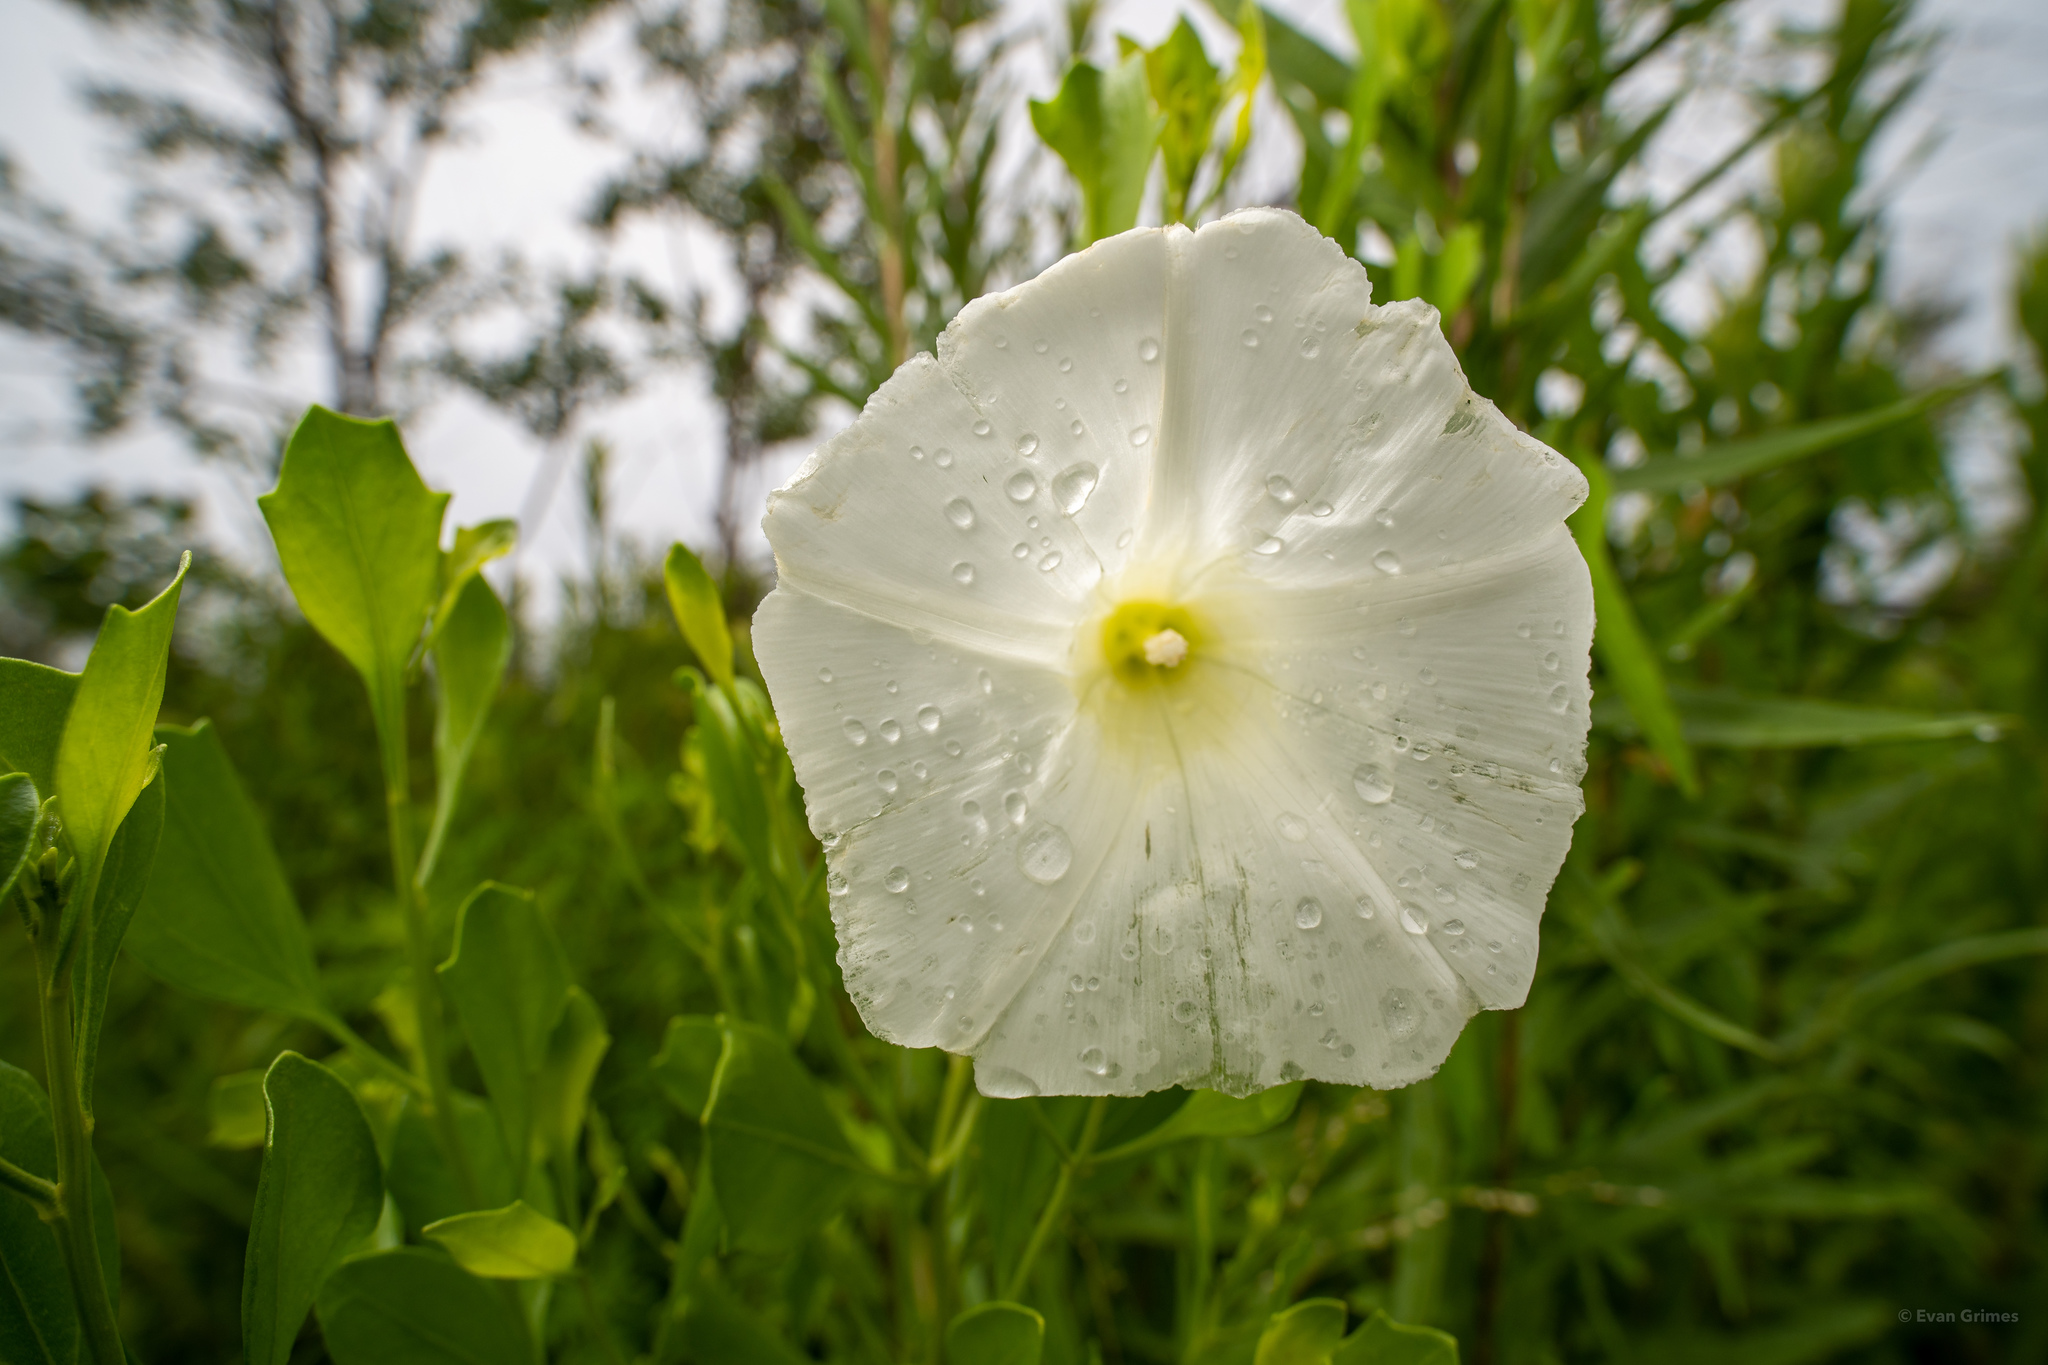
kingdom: Plantae
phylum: Tracheophyta
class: Magnoliopsida
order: Solanales
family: Convolvulaceae
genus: Ipomoea
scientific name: Ipomoea imperati
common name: Fiddle-leaf morning-glory
